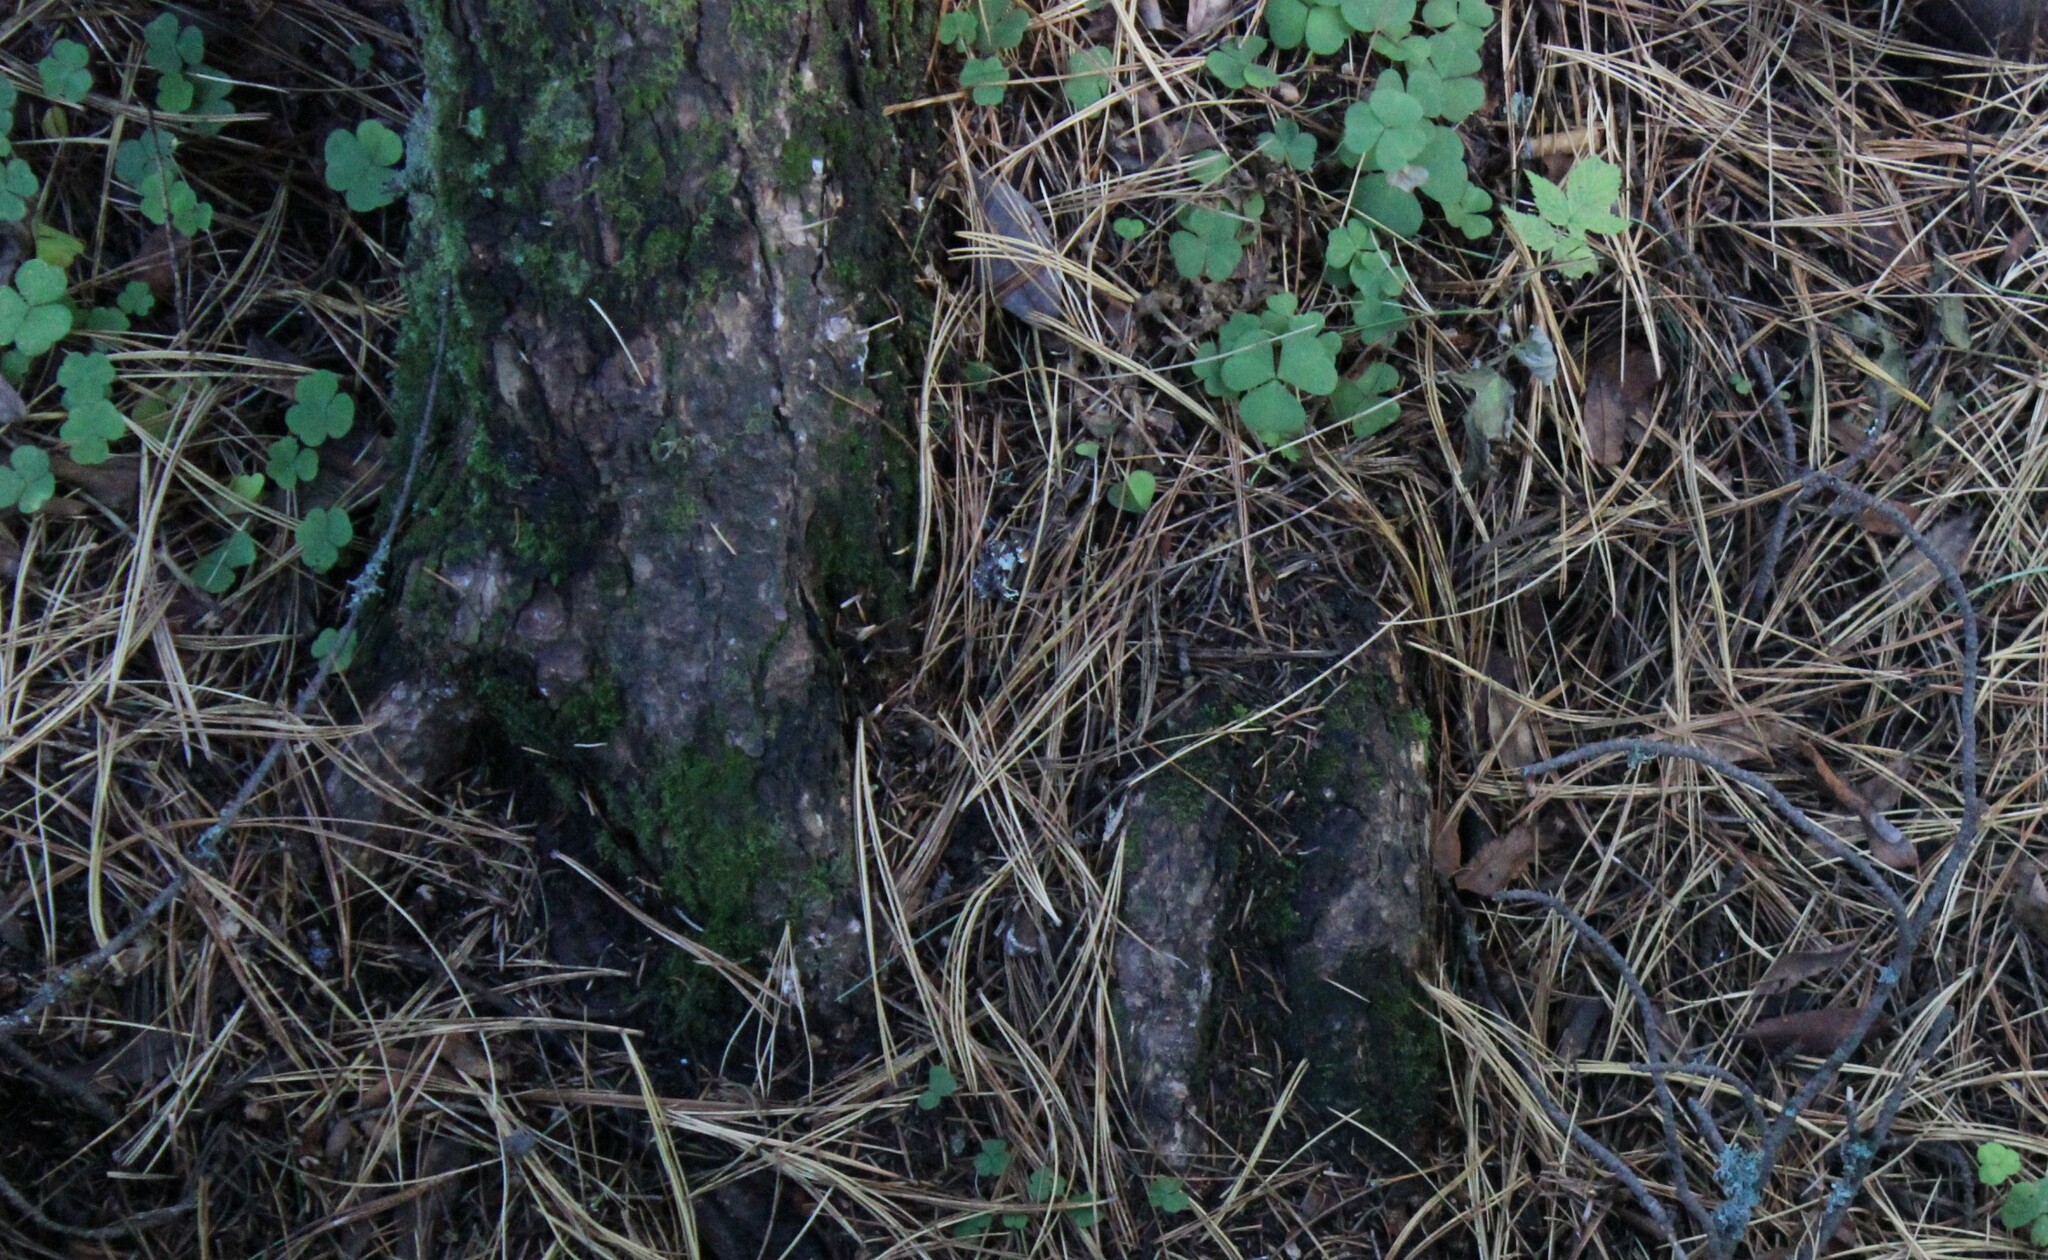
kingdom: Plantae
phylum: Tracheophyta
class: Magnoliopsida
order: Oxalidales
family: Oxalidaceae
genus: Oxalis
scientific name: Oxalis acetosella
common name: Wood-sorrel
